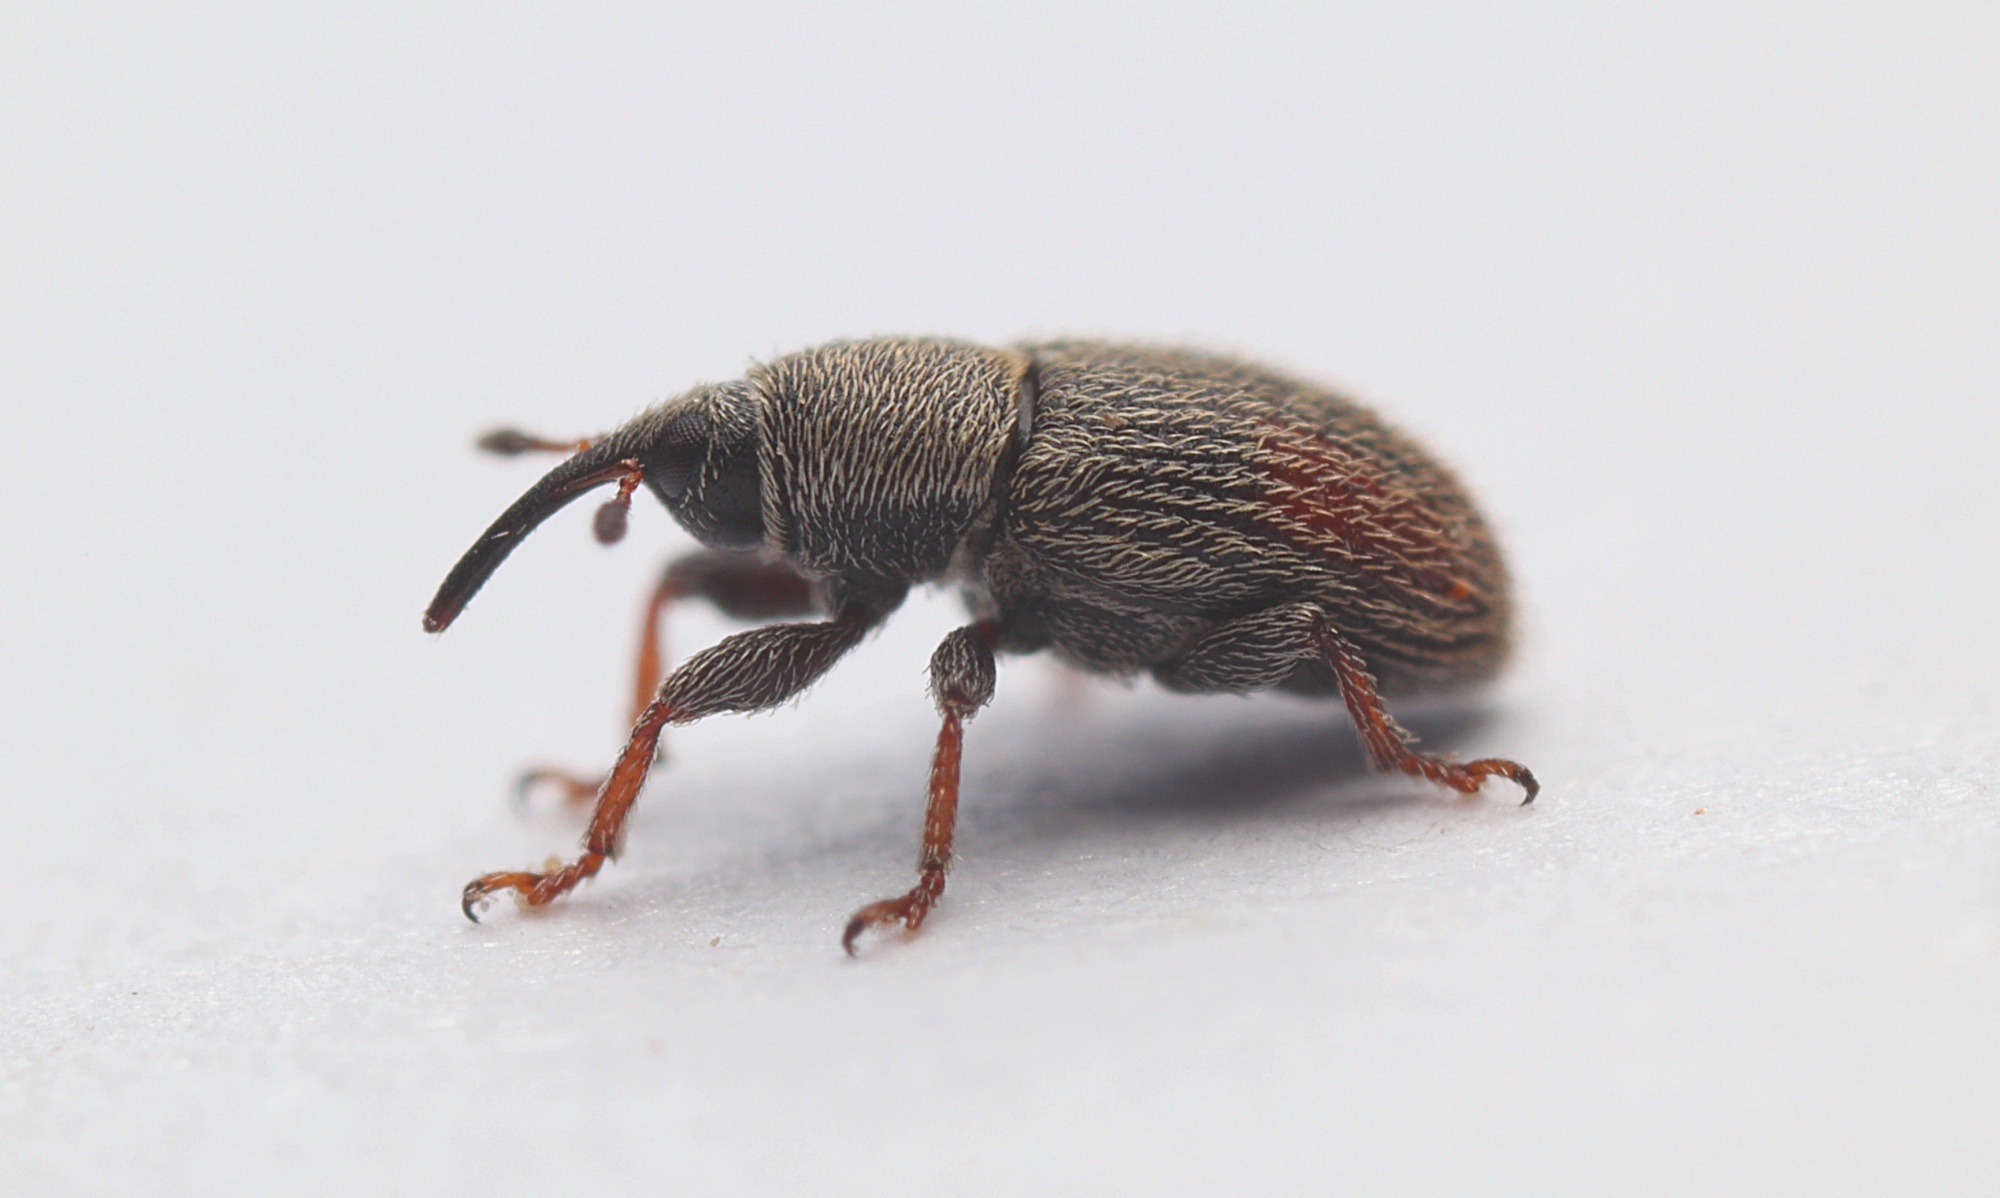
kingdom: Animalia
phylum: Arthropoda
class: Insecta
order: Coleoptera
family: Curculionidae
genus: Mecinus
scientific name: Mecinus pascuorum
